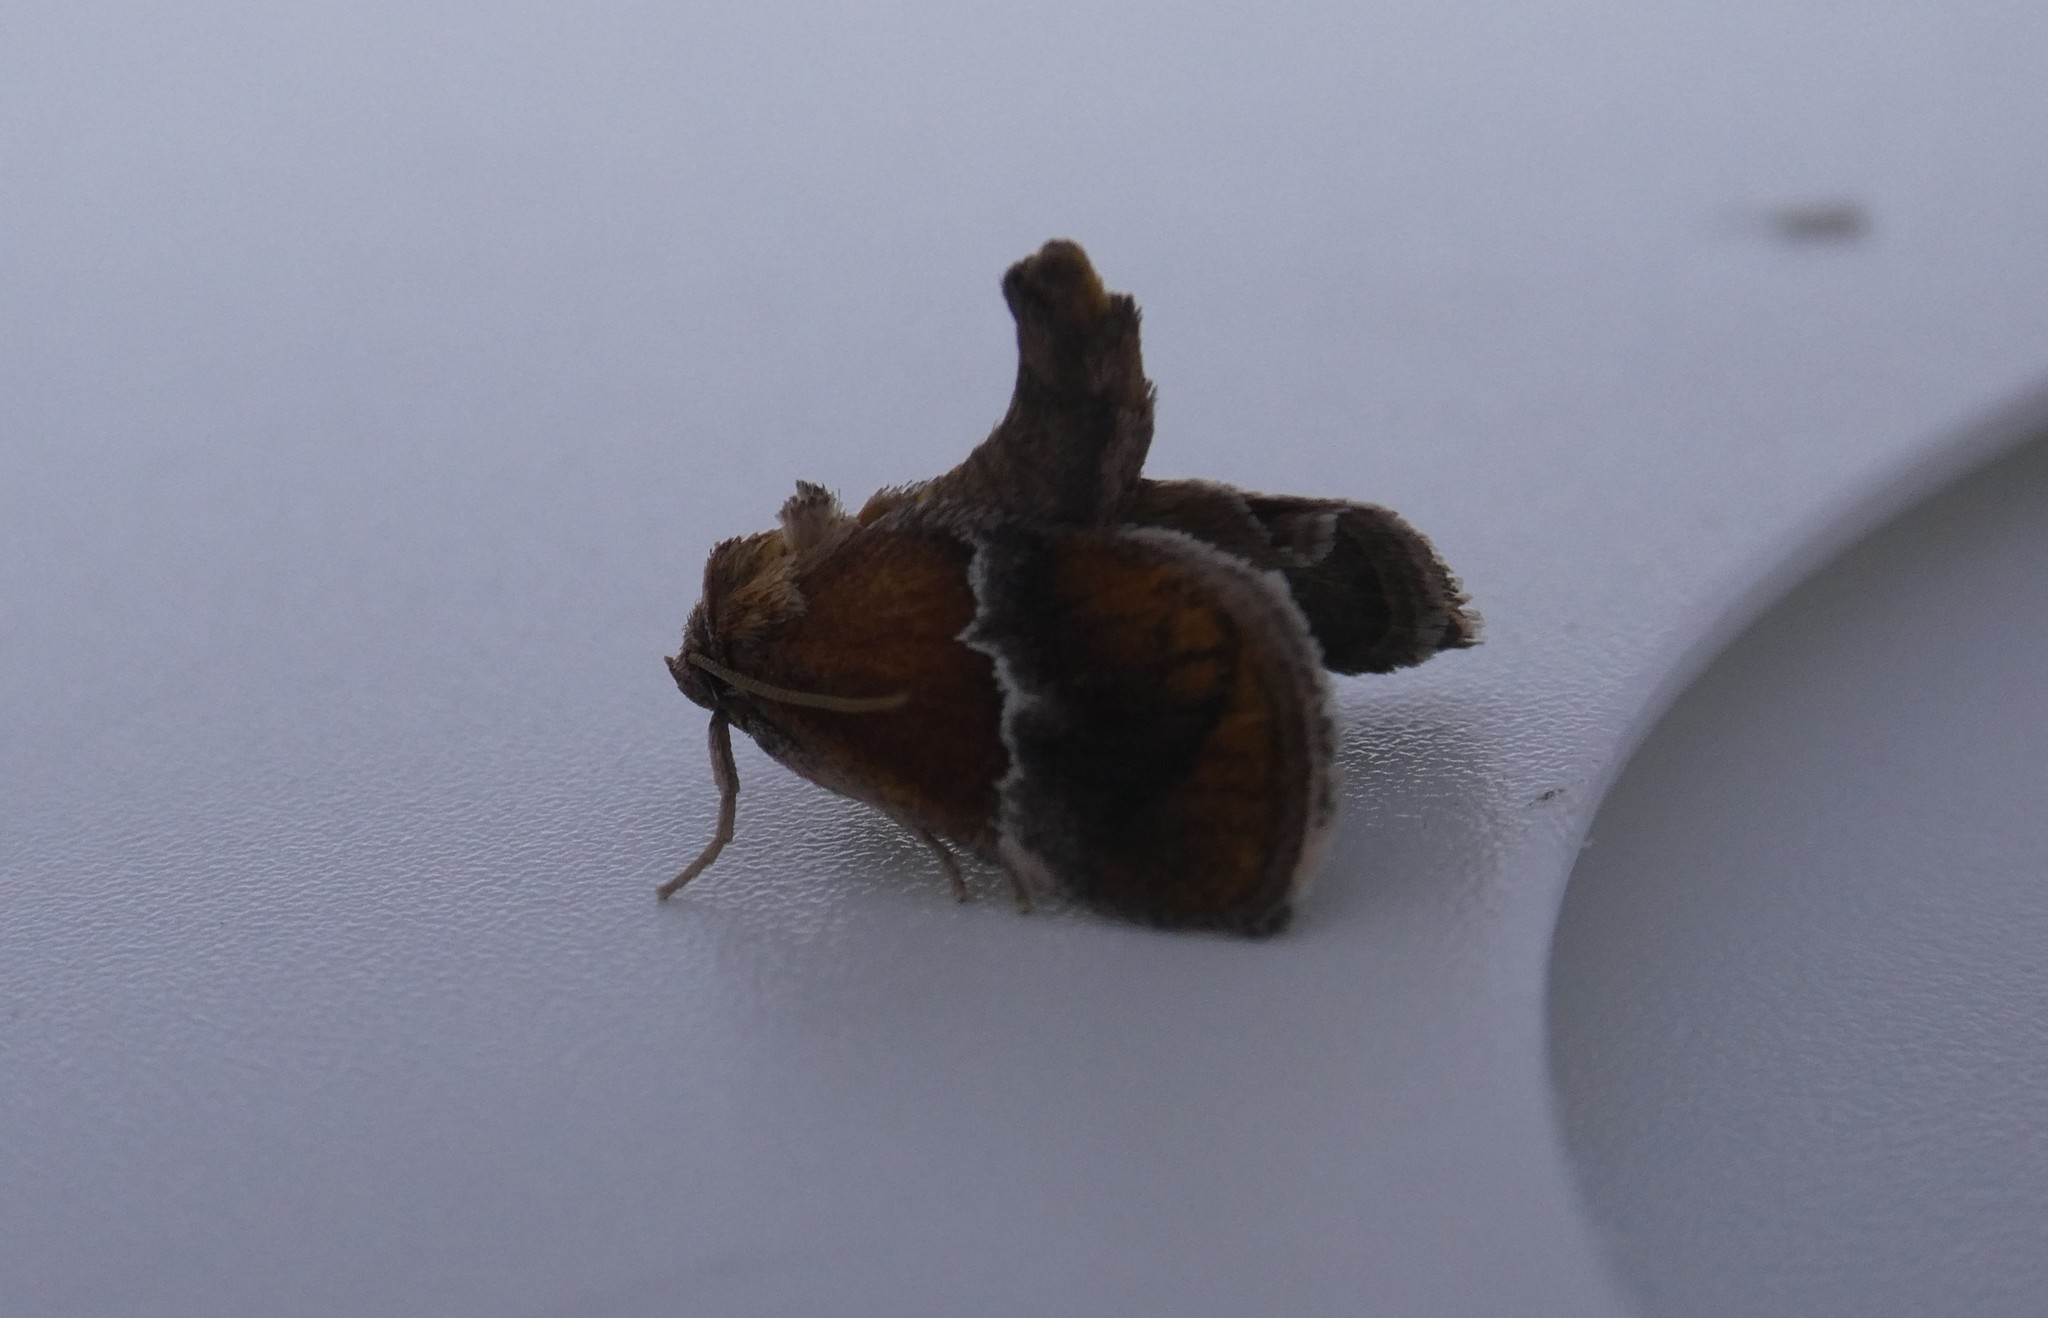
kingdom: Animalia
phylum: Arthropoda
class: Insecta
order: Lepidoptera
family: Limacodidae
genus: Lithacodes
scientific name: Lithacodes fasciola
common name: Yellow-shouldered slug moth
